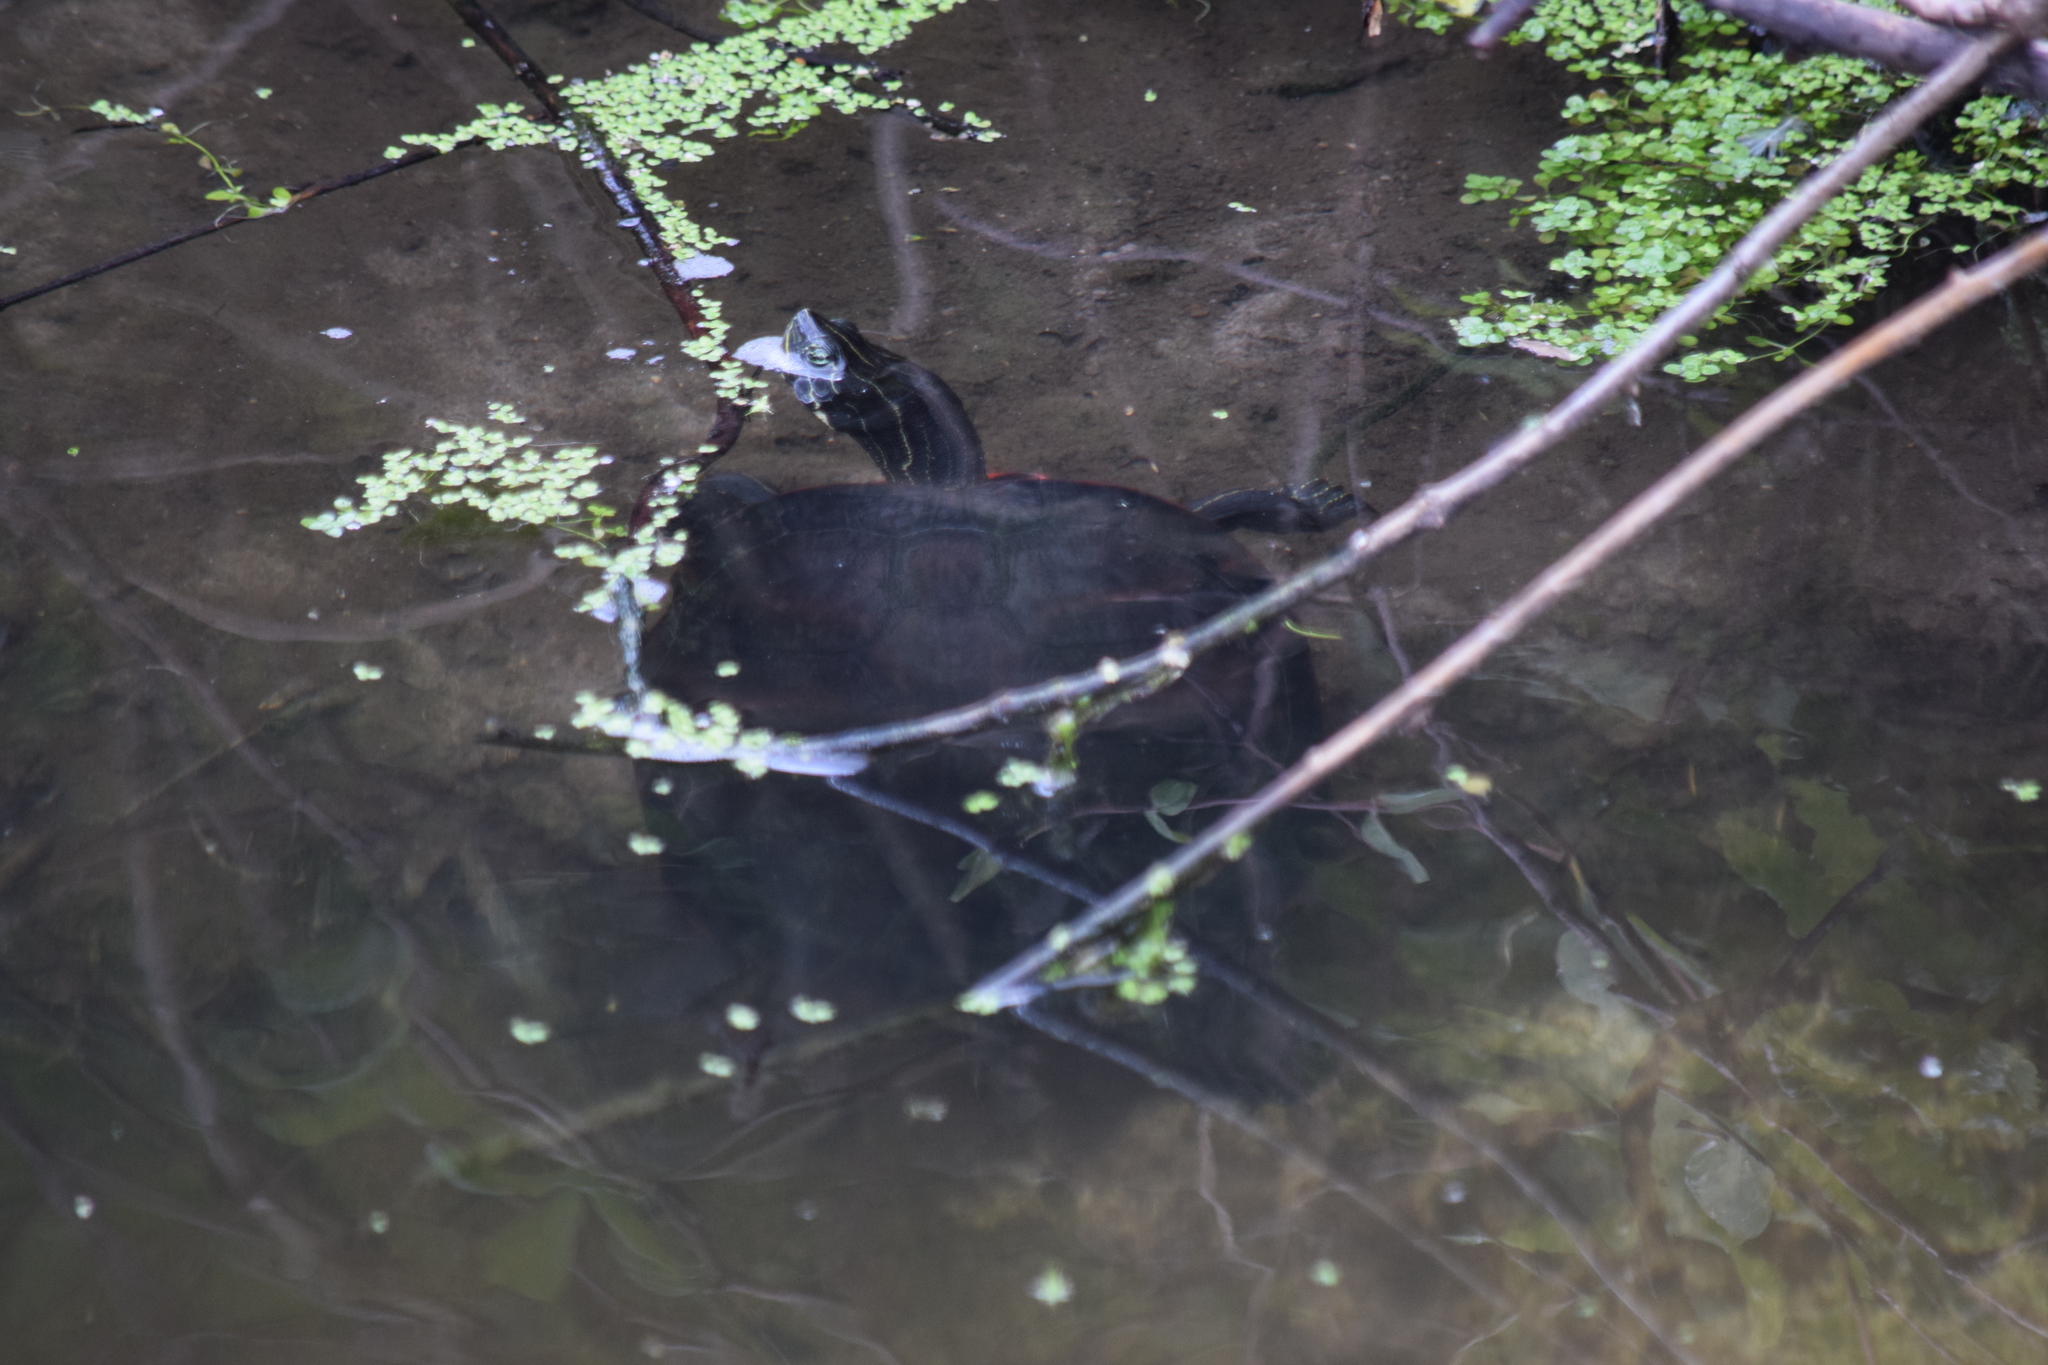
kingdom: Animalia
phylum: Chordata
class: Testudines
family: Emydidae
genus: Pseudemys
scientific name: Pseudemys rubriventris
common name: American red-bellied turtle
